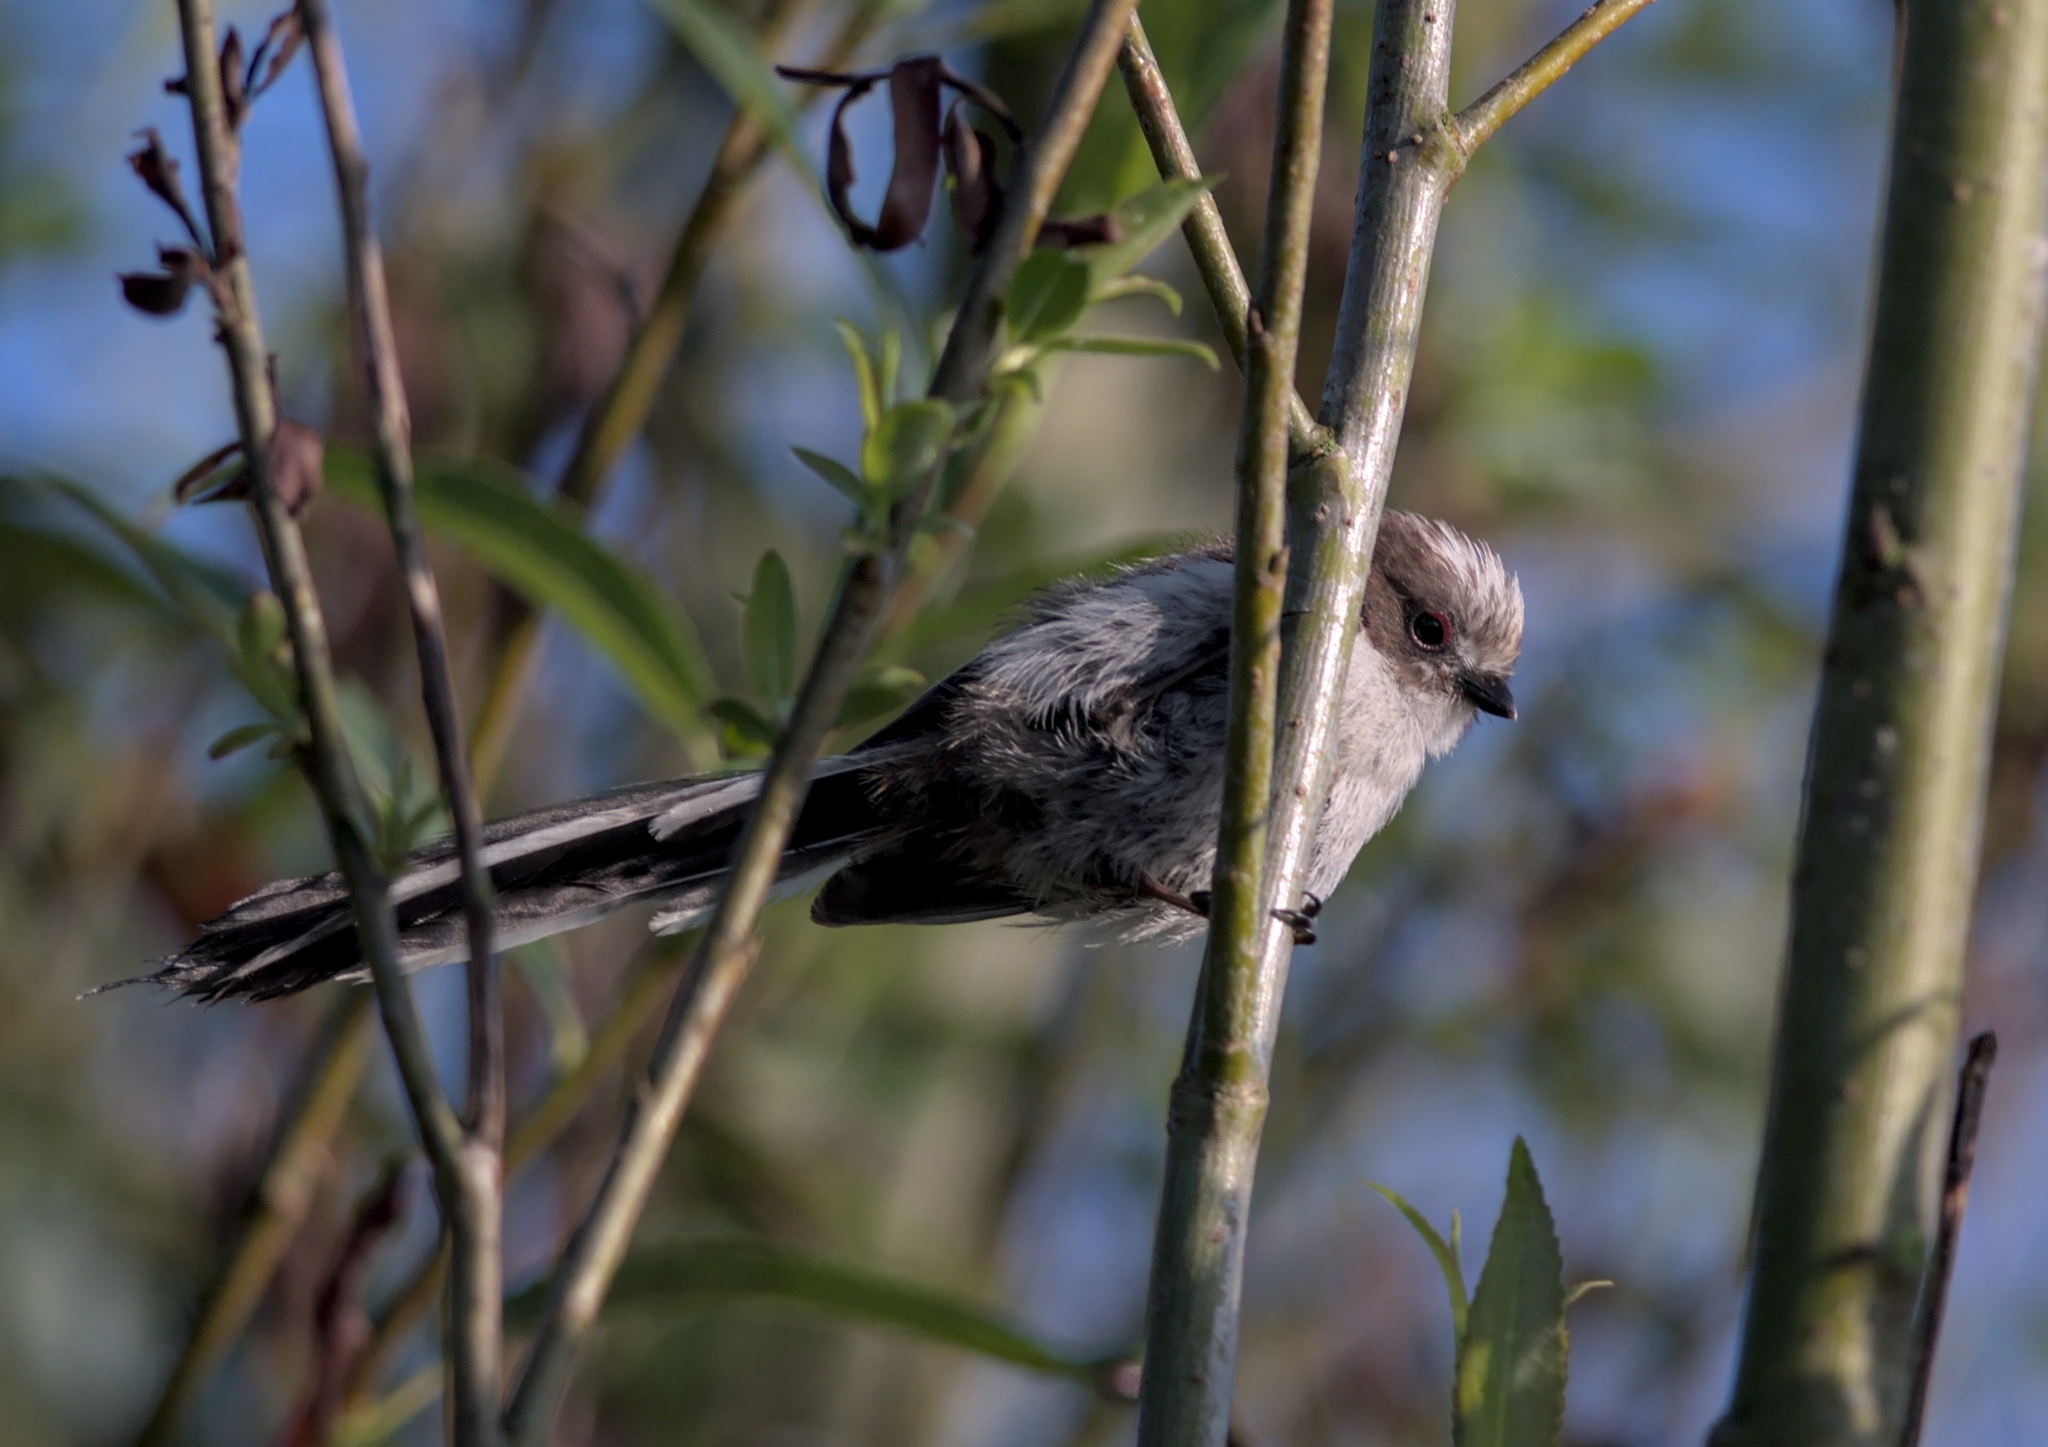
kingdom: Animalia
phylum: Chordata
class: Aves
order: Passeriformes
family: Aegithalidae
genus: Aegithalos
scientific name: Aegithalos caudatus
